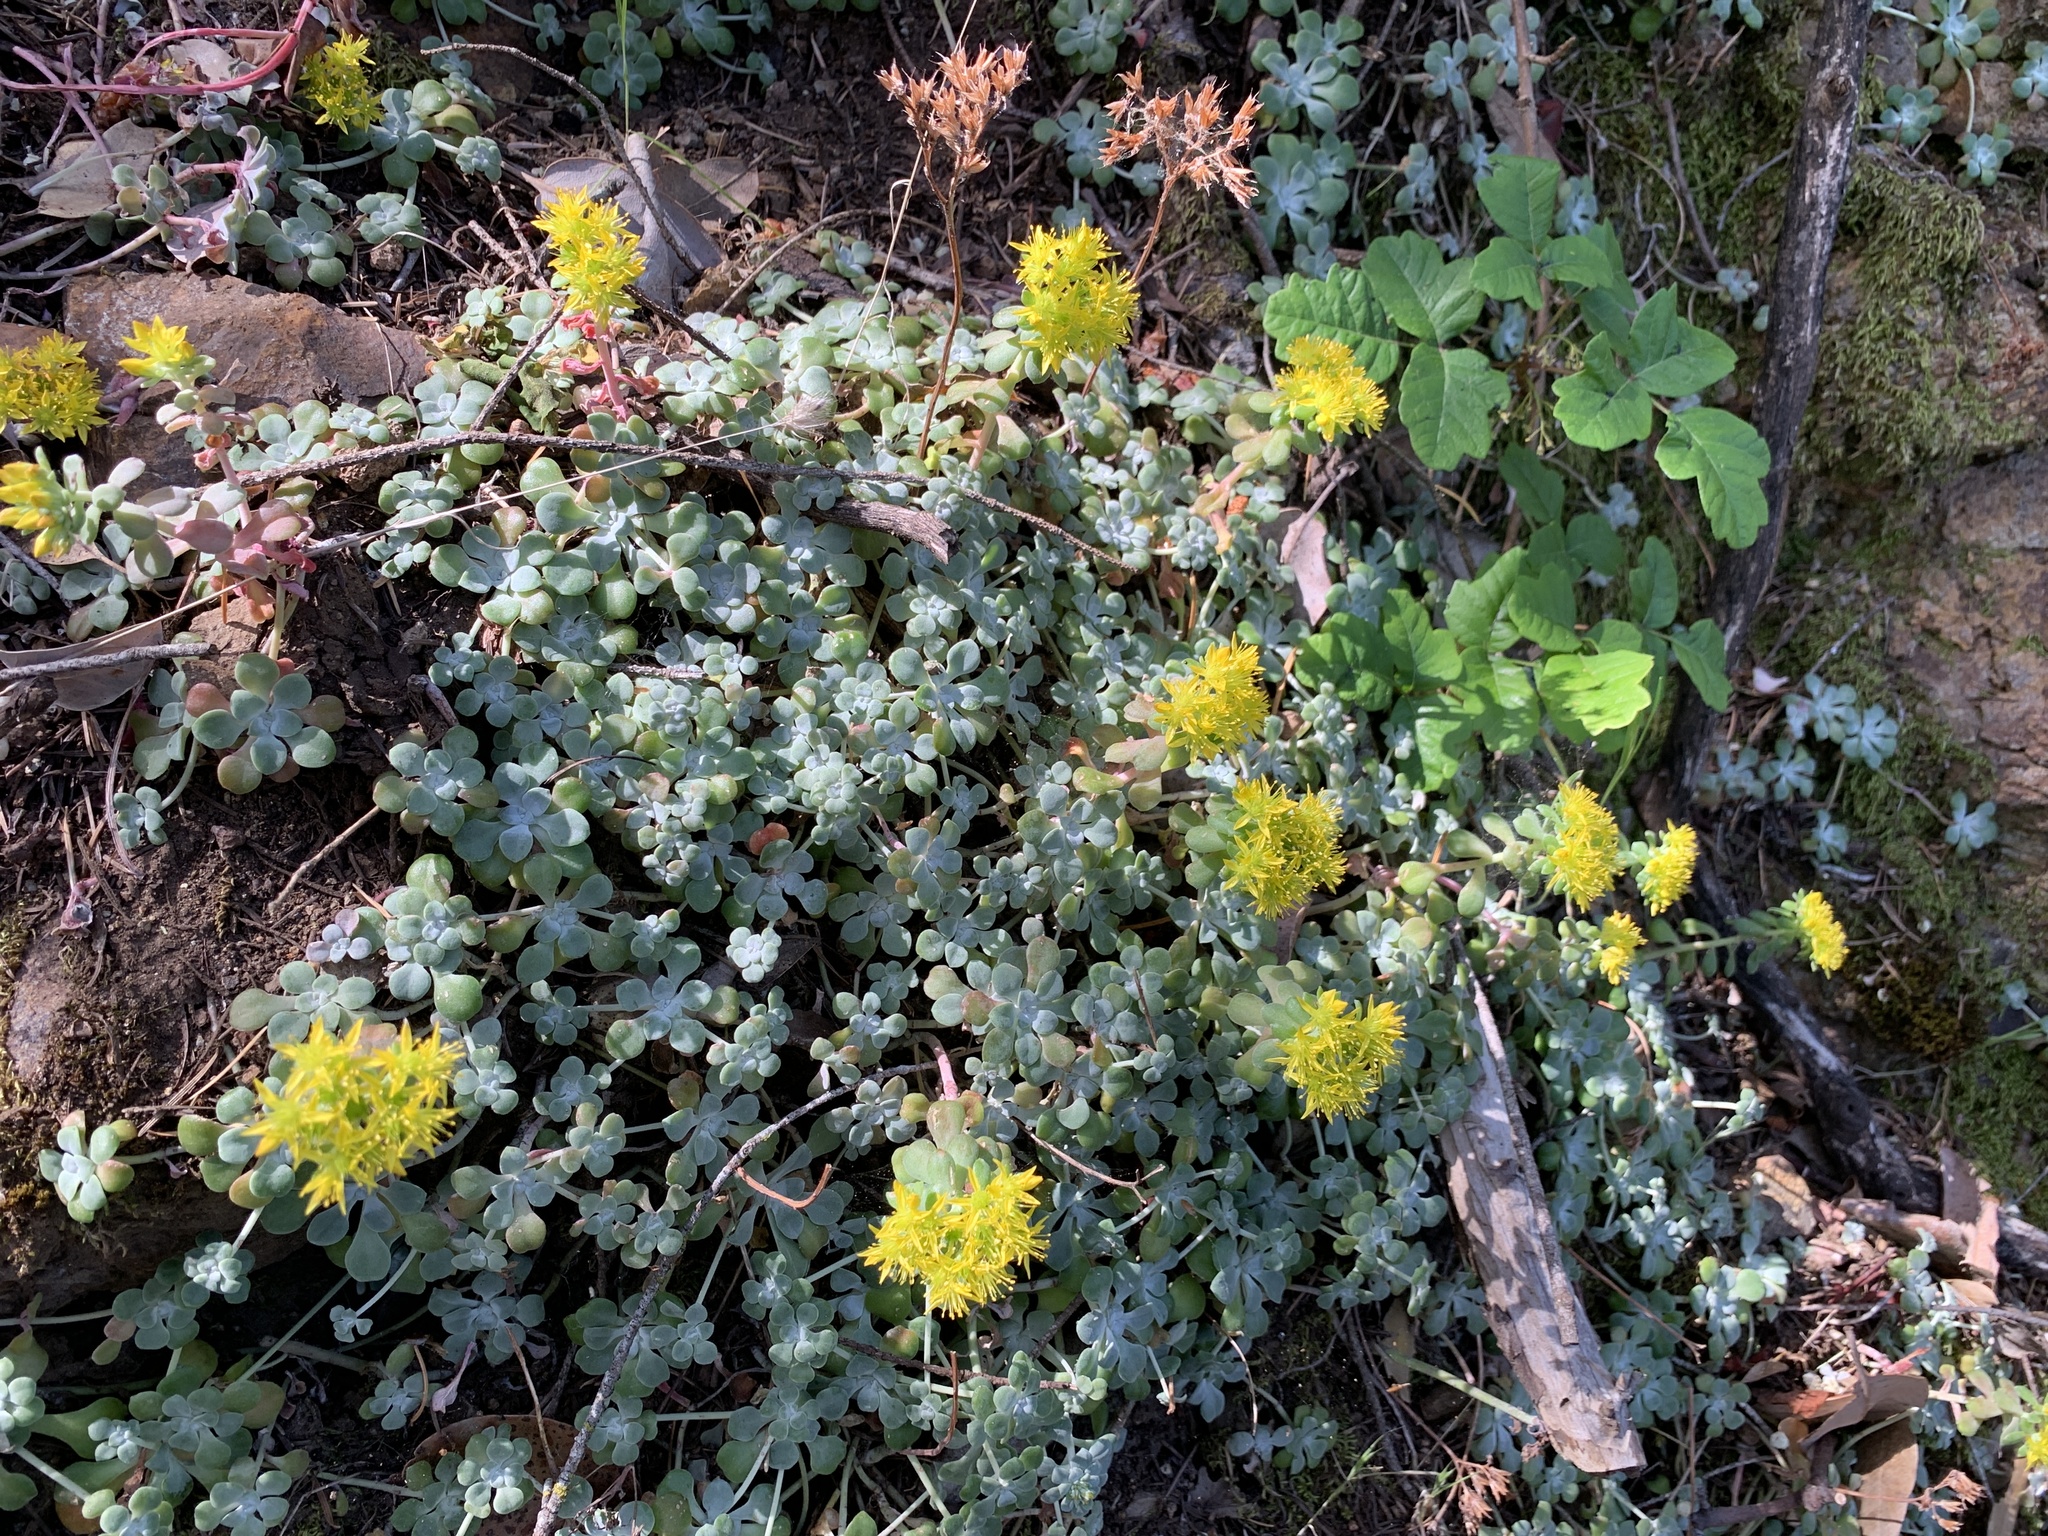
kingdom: Plantae
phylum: Tracheophyta
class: Magnoliopsida
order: Saxifragales
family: Crassulaceae
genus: Sedum
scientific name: Sedum spathulifolium
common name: Colorado stonecrop
